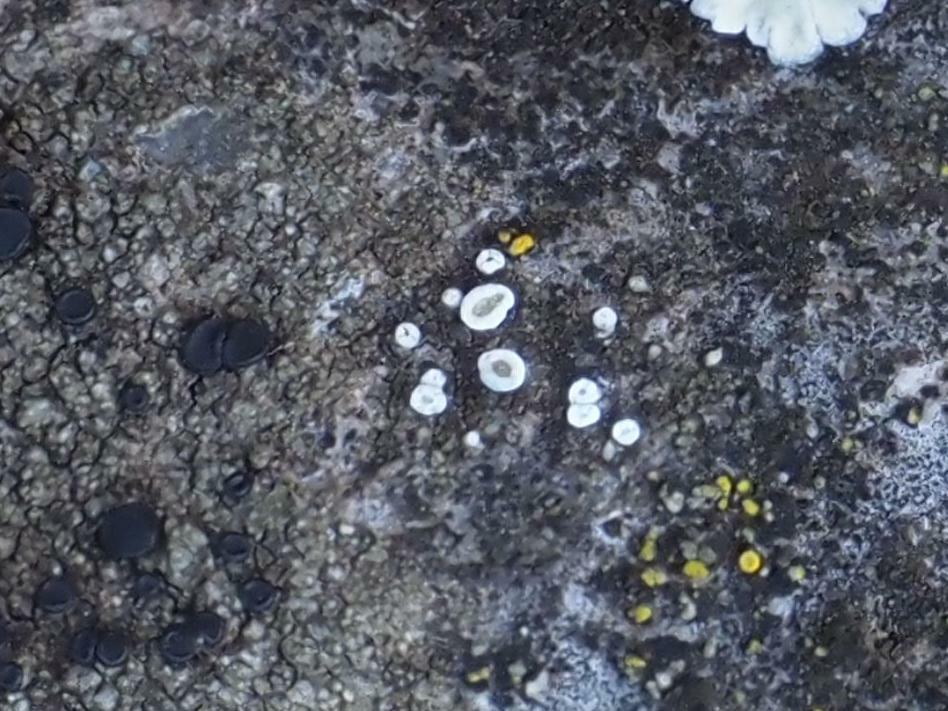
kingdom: Fungi
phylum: Ascomycota
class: Lecanoromycetes
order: Lecanorales
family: Lecanoraceae
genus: Polyozosia
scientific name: Polyozosia dispersa
